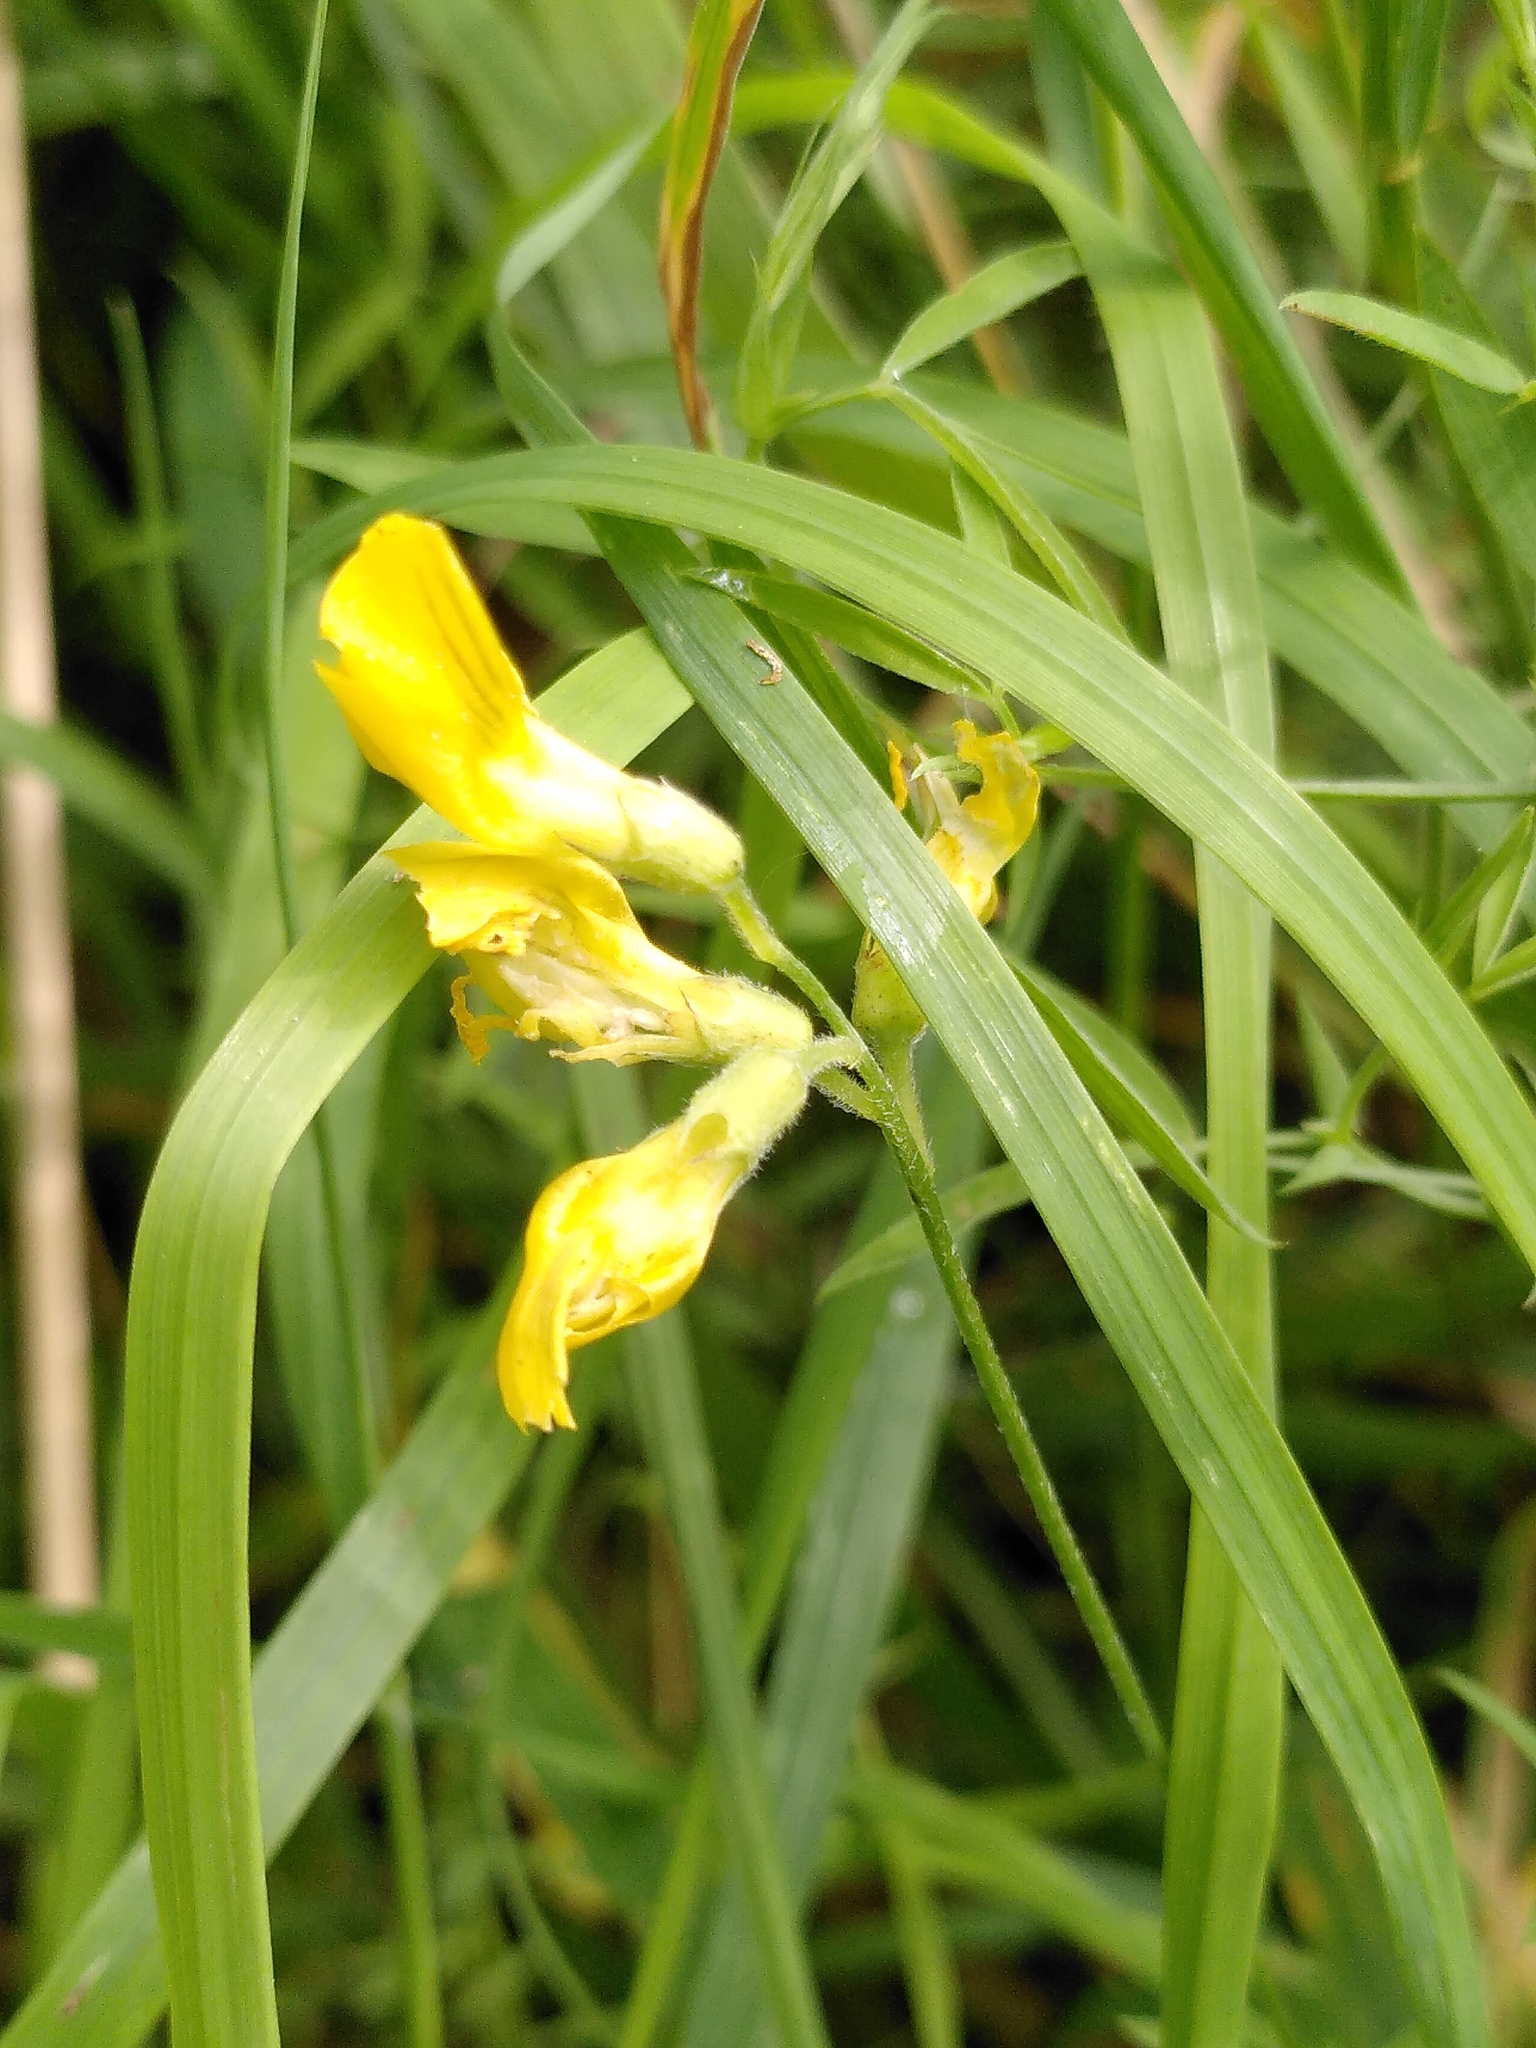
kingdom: Plantae
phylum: Tracheophyta
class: Magnoliopsida
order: Fabales
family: Fabaceae
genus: Lathyrus
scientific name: Lathyrus pratensis
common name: Meadow vetchling
